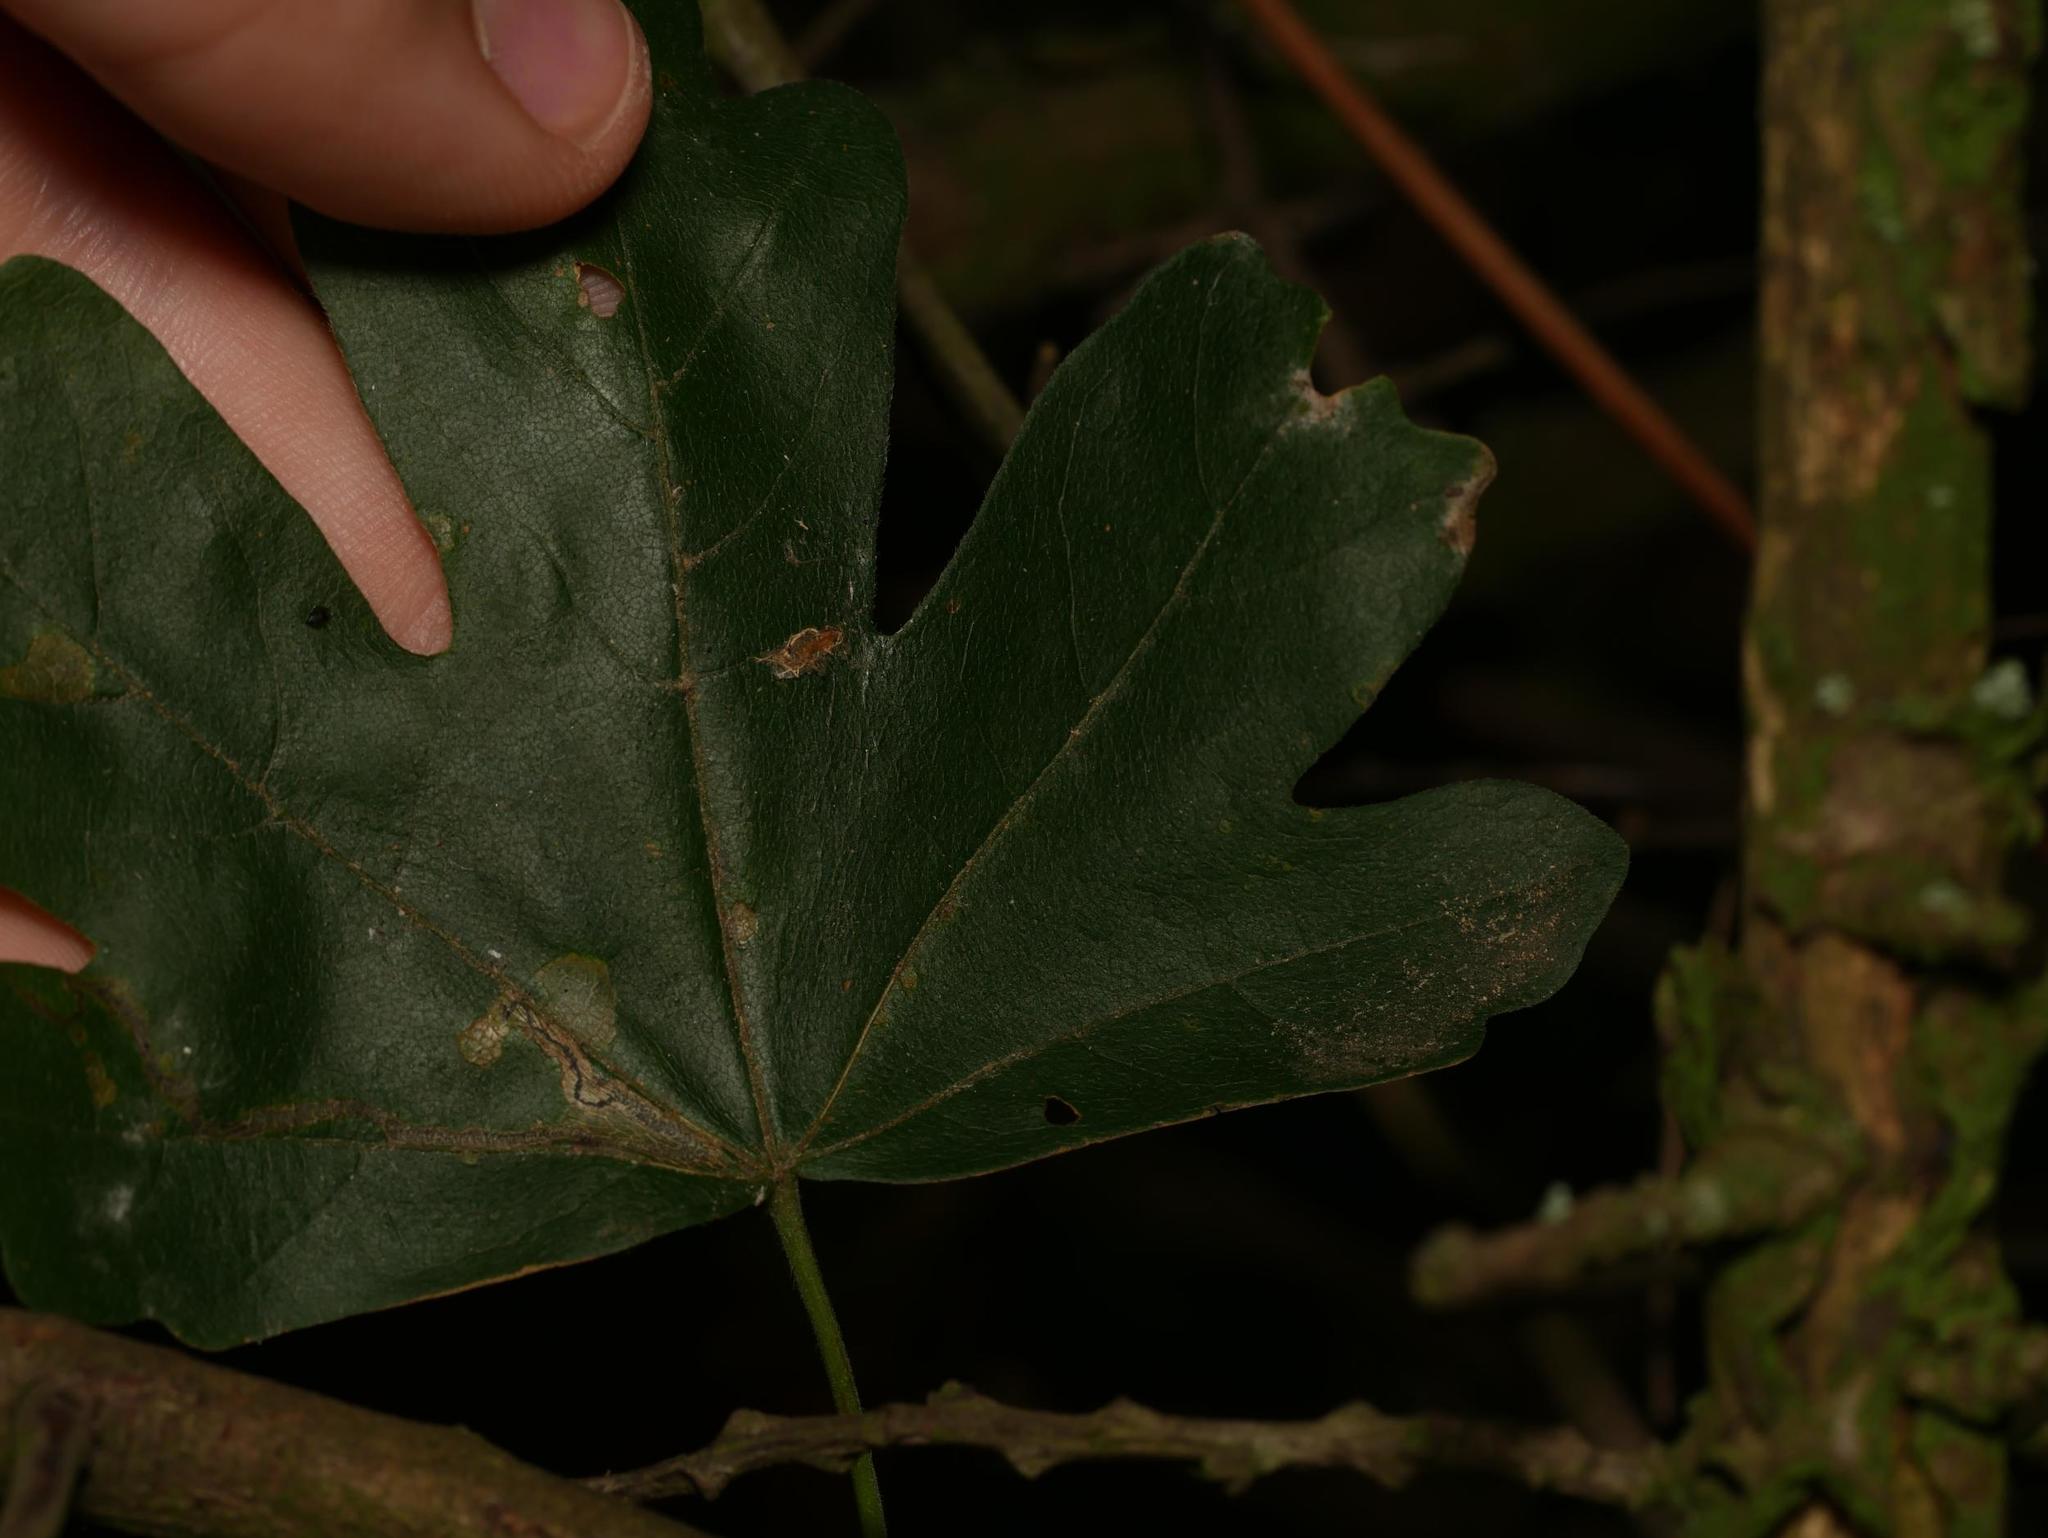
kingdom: Plantae
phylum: Tracheophyta
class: Magnoliopsida
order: Sapindales
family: Sapindaceae
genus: Acer
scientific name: Acer campestre
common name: Field maple
